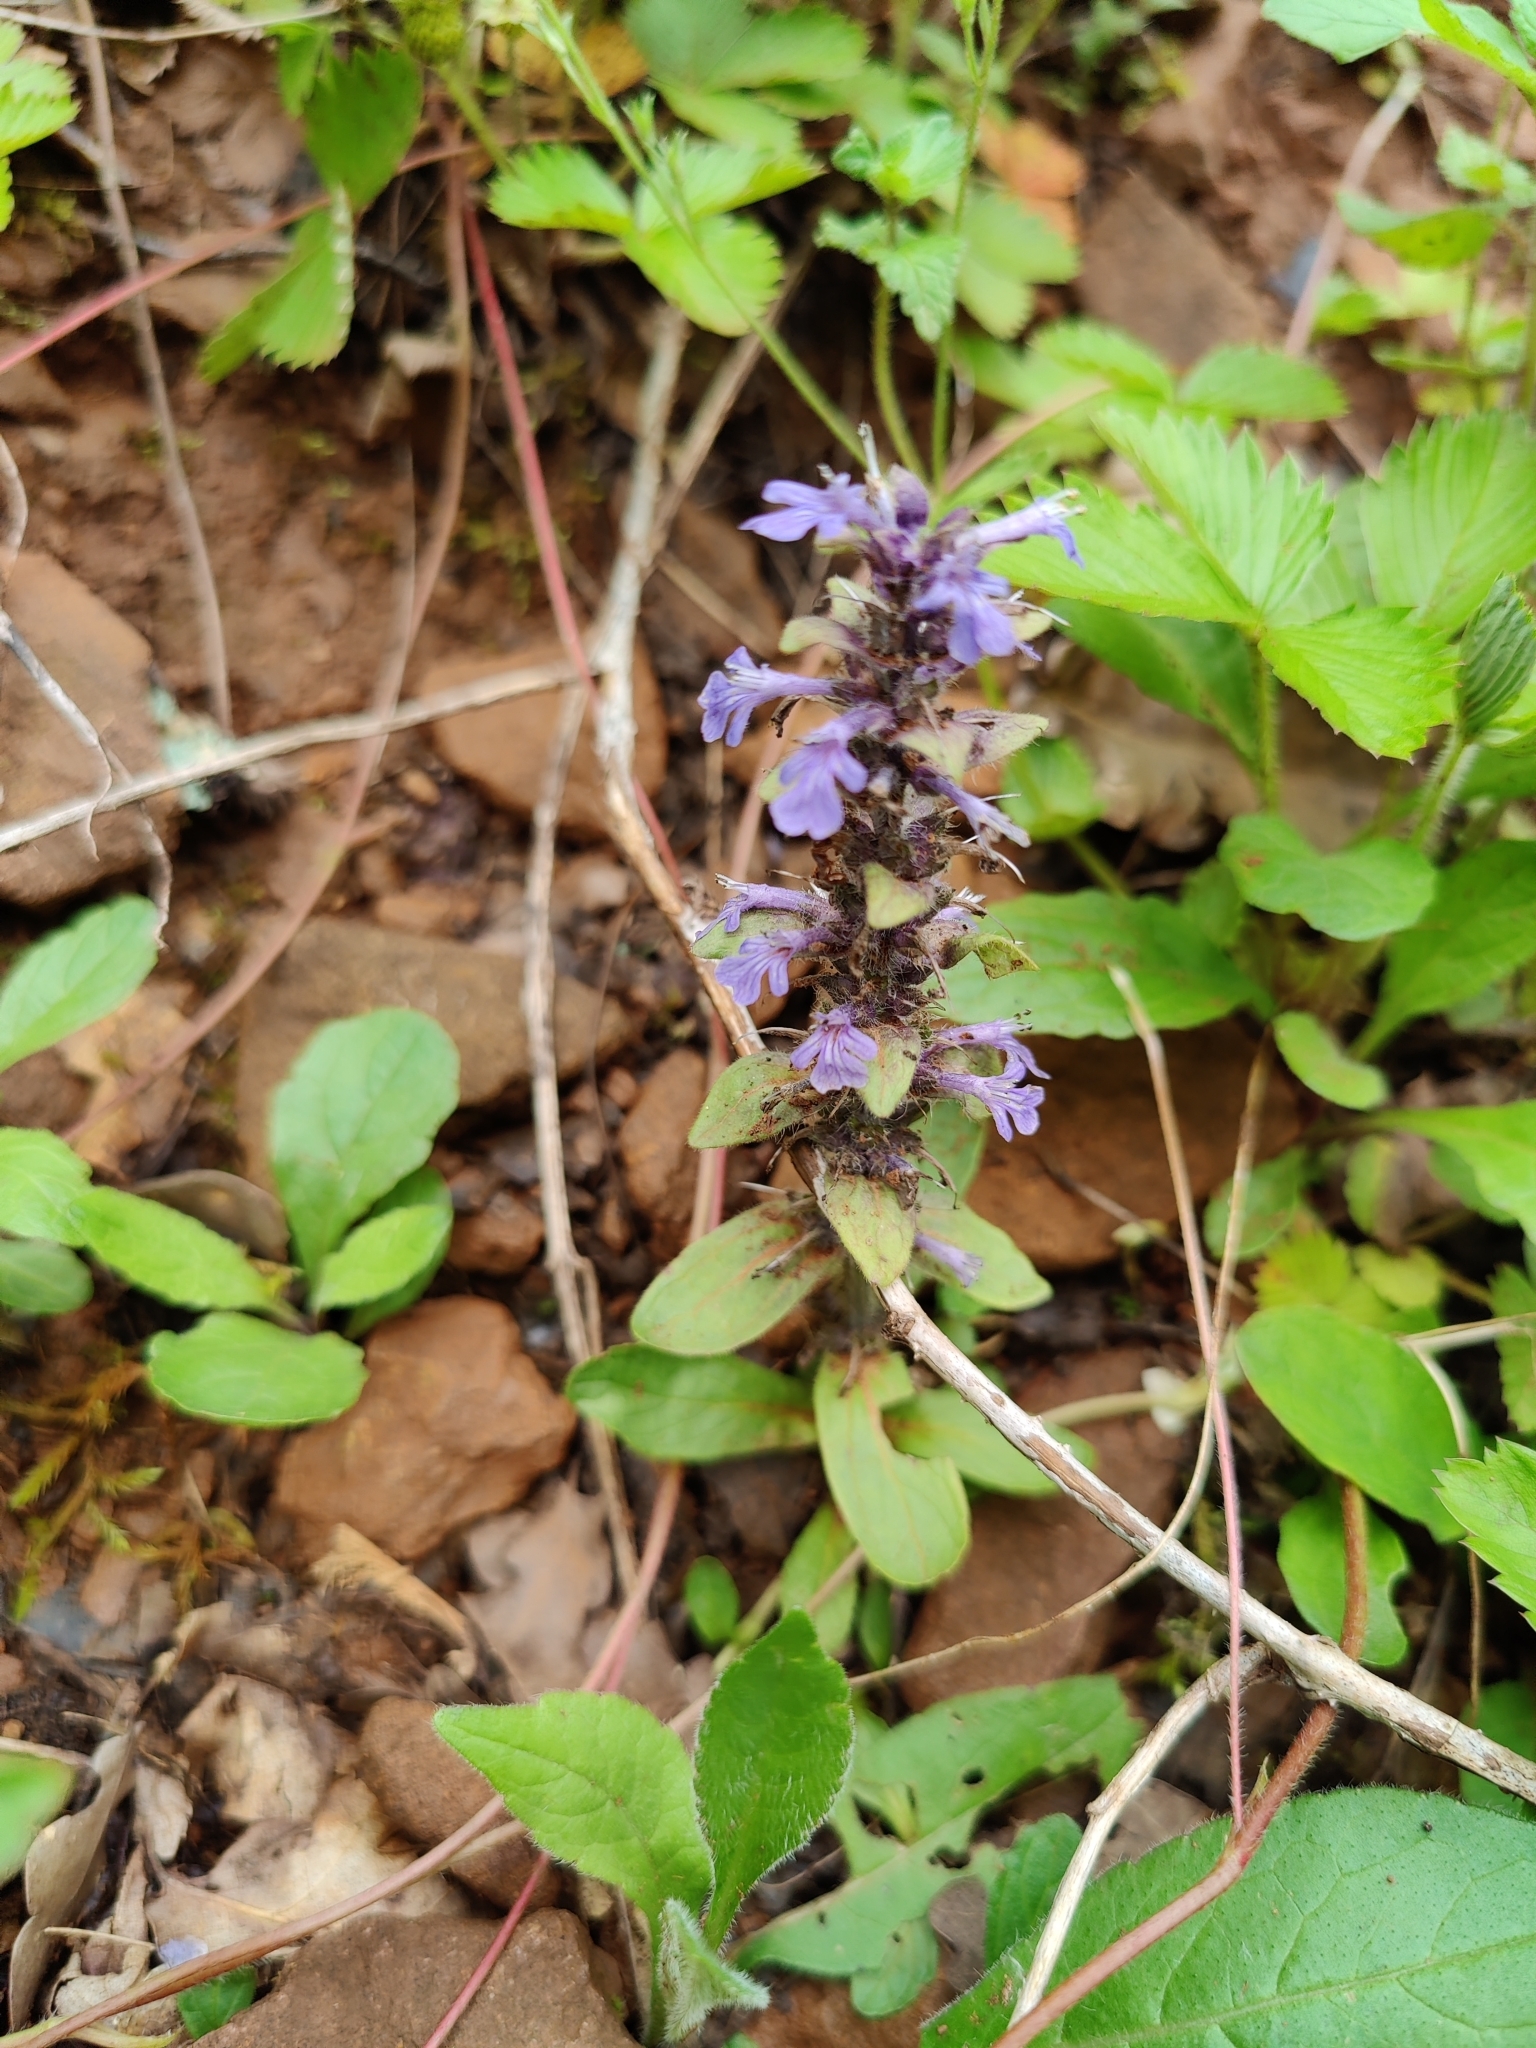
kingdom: Plantae
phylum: Tracheophyta
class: Magnoliopsida
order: Lamiales
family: Lamiaceae
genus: Ajuga
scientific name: Ajuga reptans
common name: Bugle
